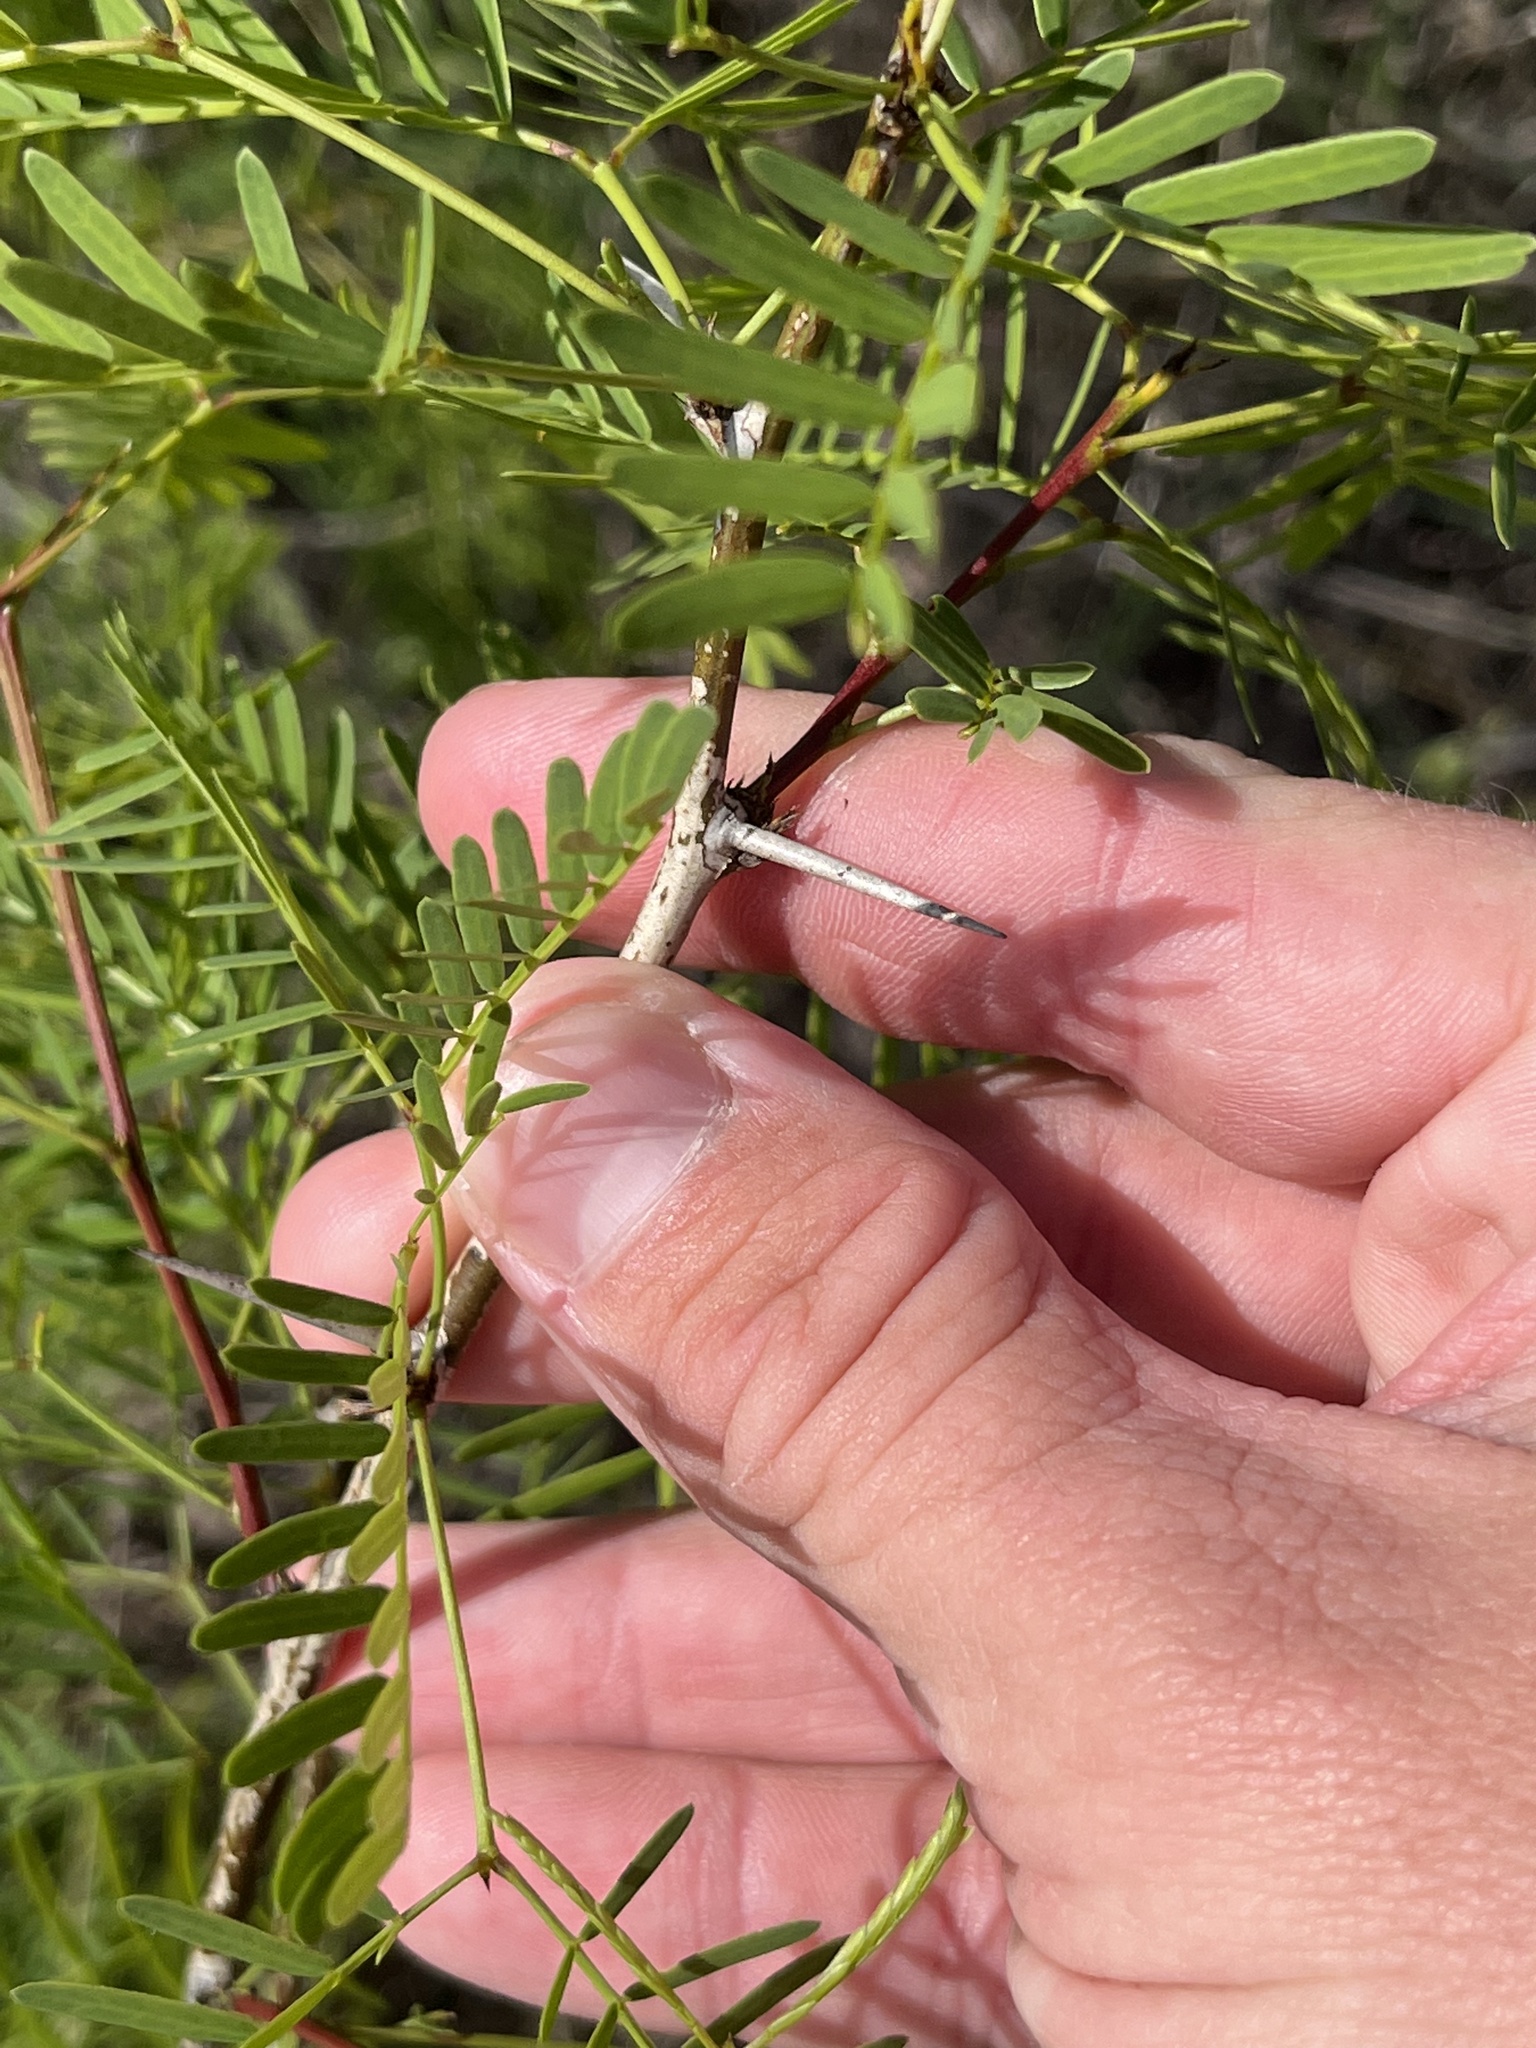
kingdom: Plantae
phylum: Tracheophyta
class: Magnoliopsida
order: Fabales
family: Fabaceae
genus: Prosopis
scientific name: Prosopis glandulosa
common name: Honey mesquite
